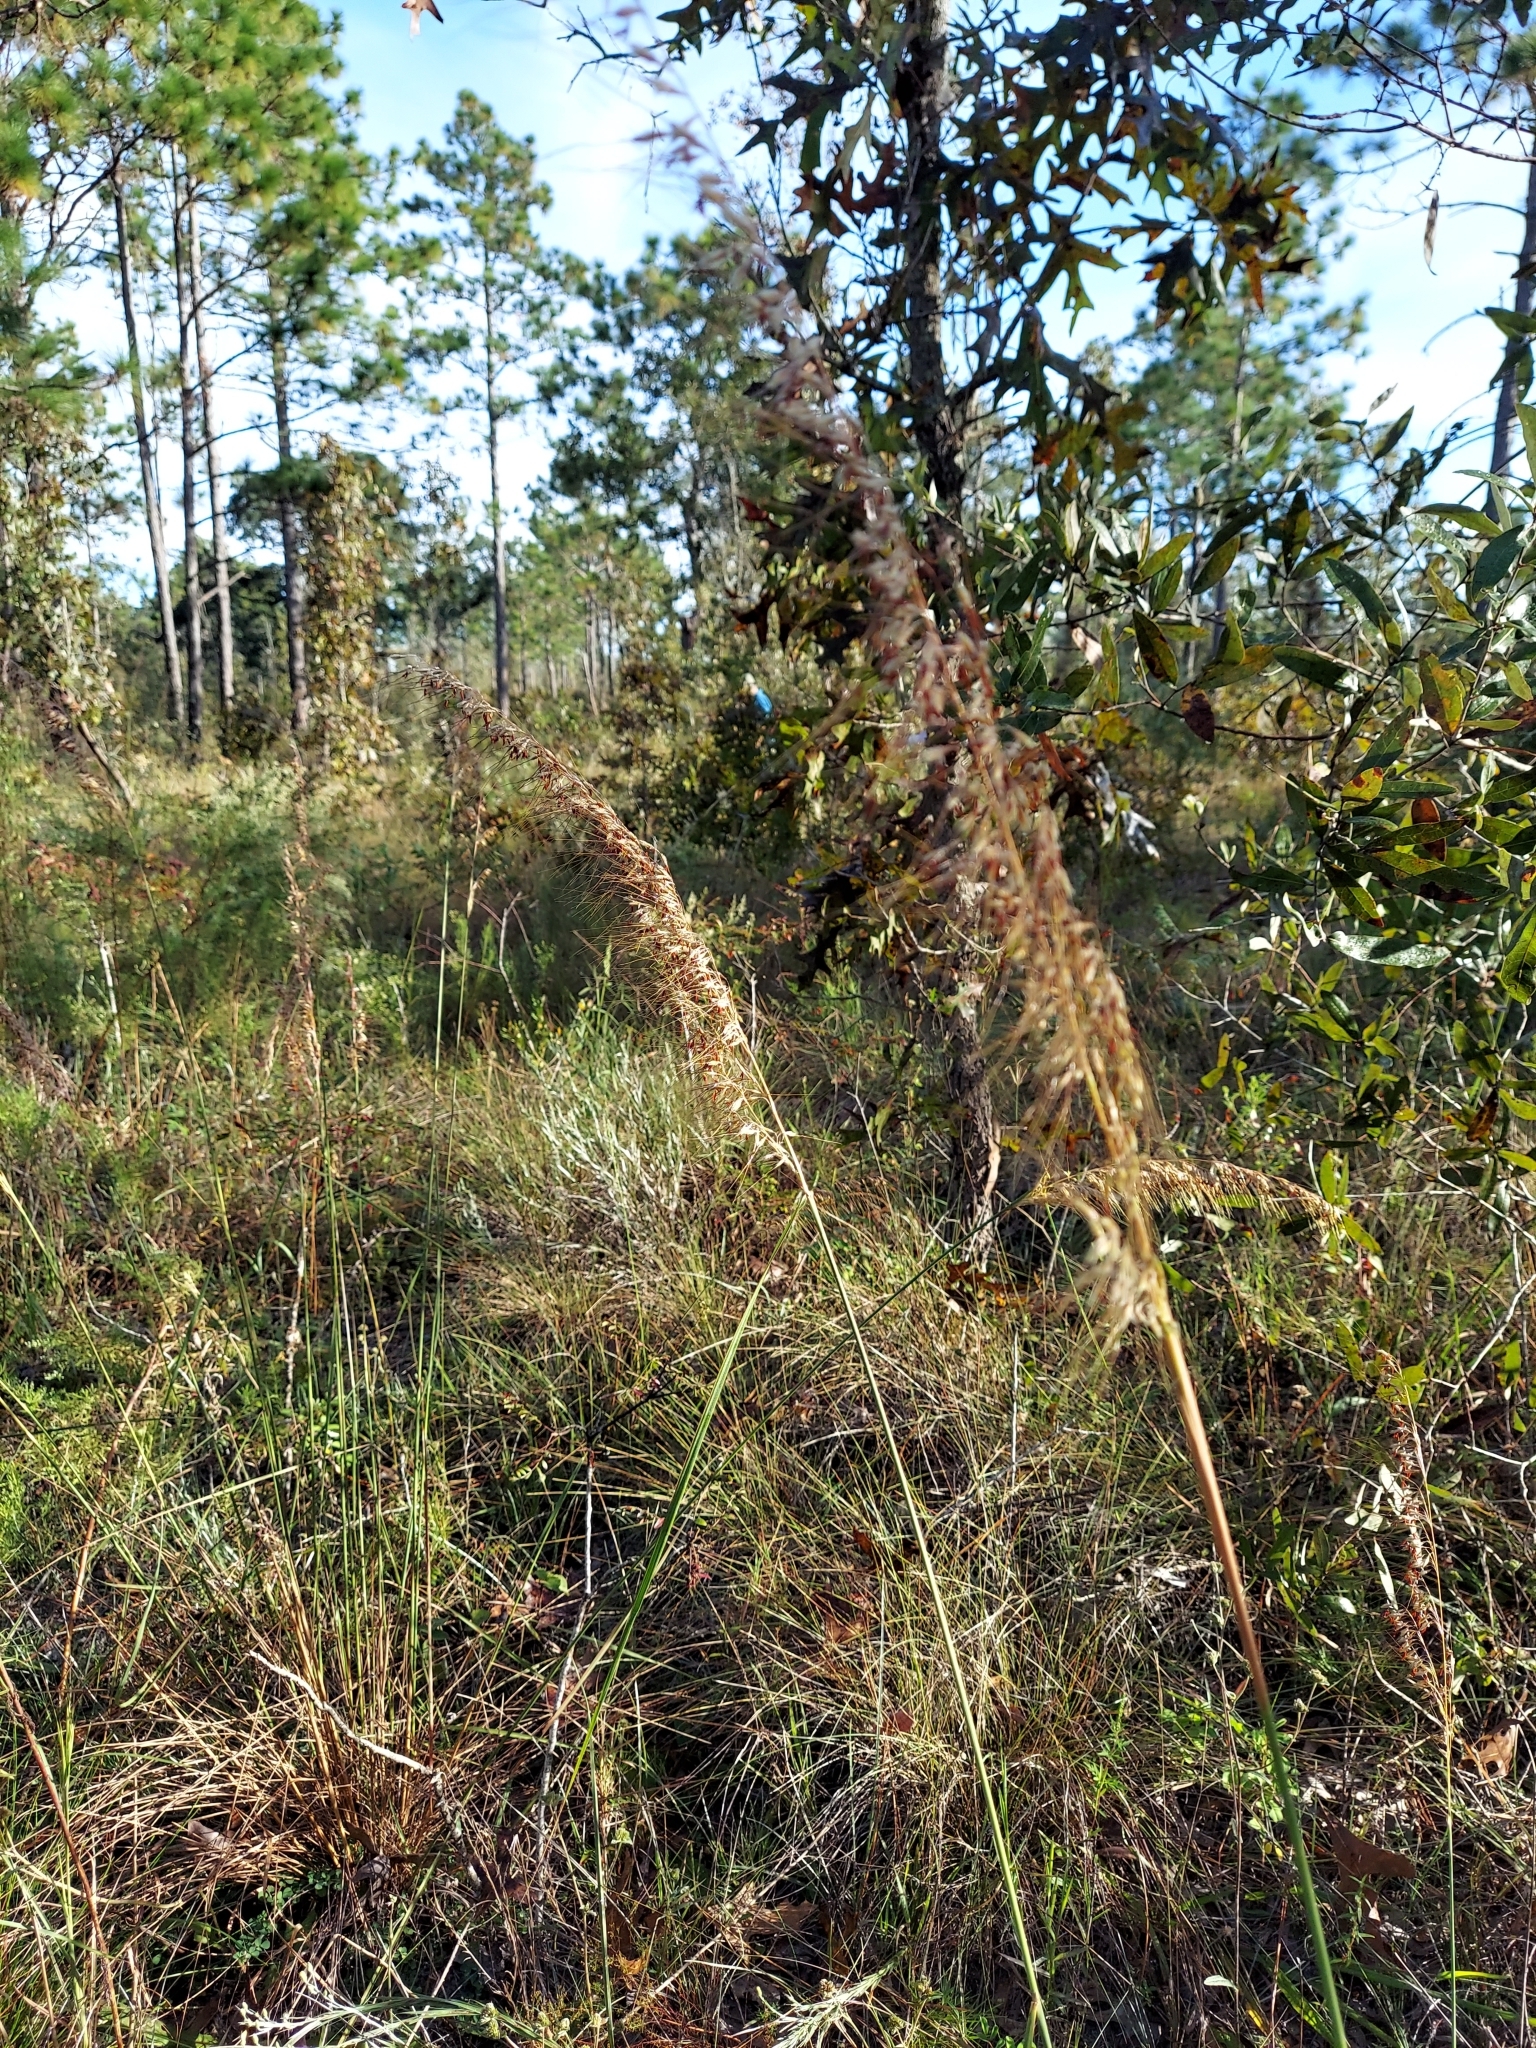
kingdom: Plantae
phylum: Tracheophyta
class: Liliopsida
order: Poales
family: Poaceae
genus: Sorghastrum
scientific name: Sorghastrum secundum
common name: Lopsided indian grass
